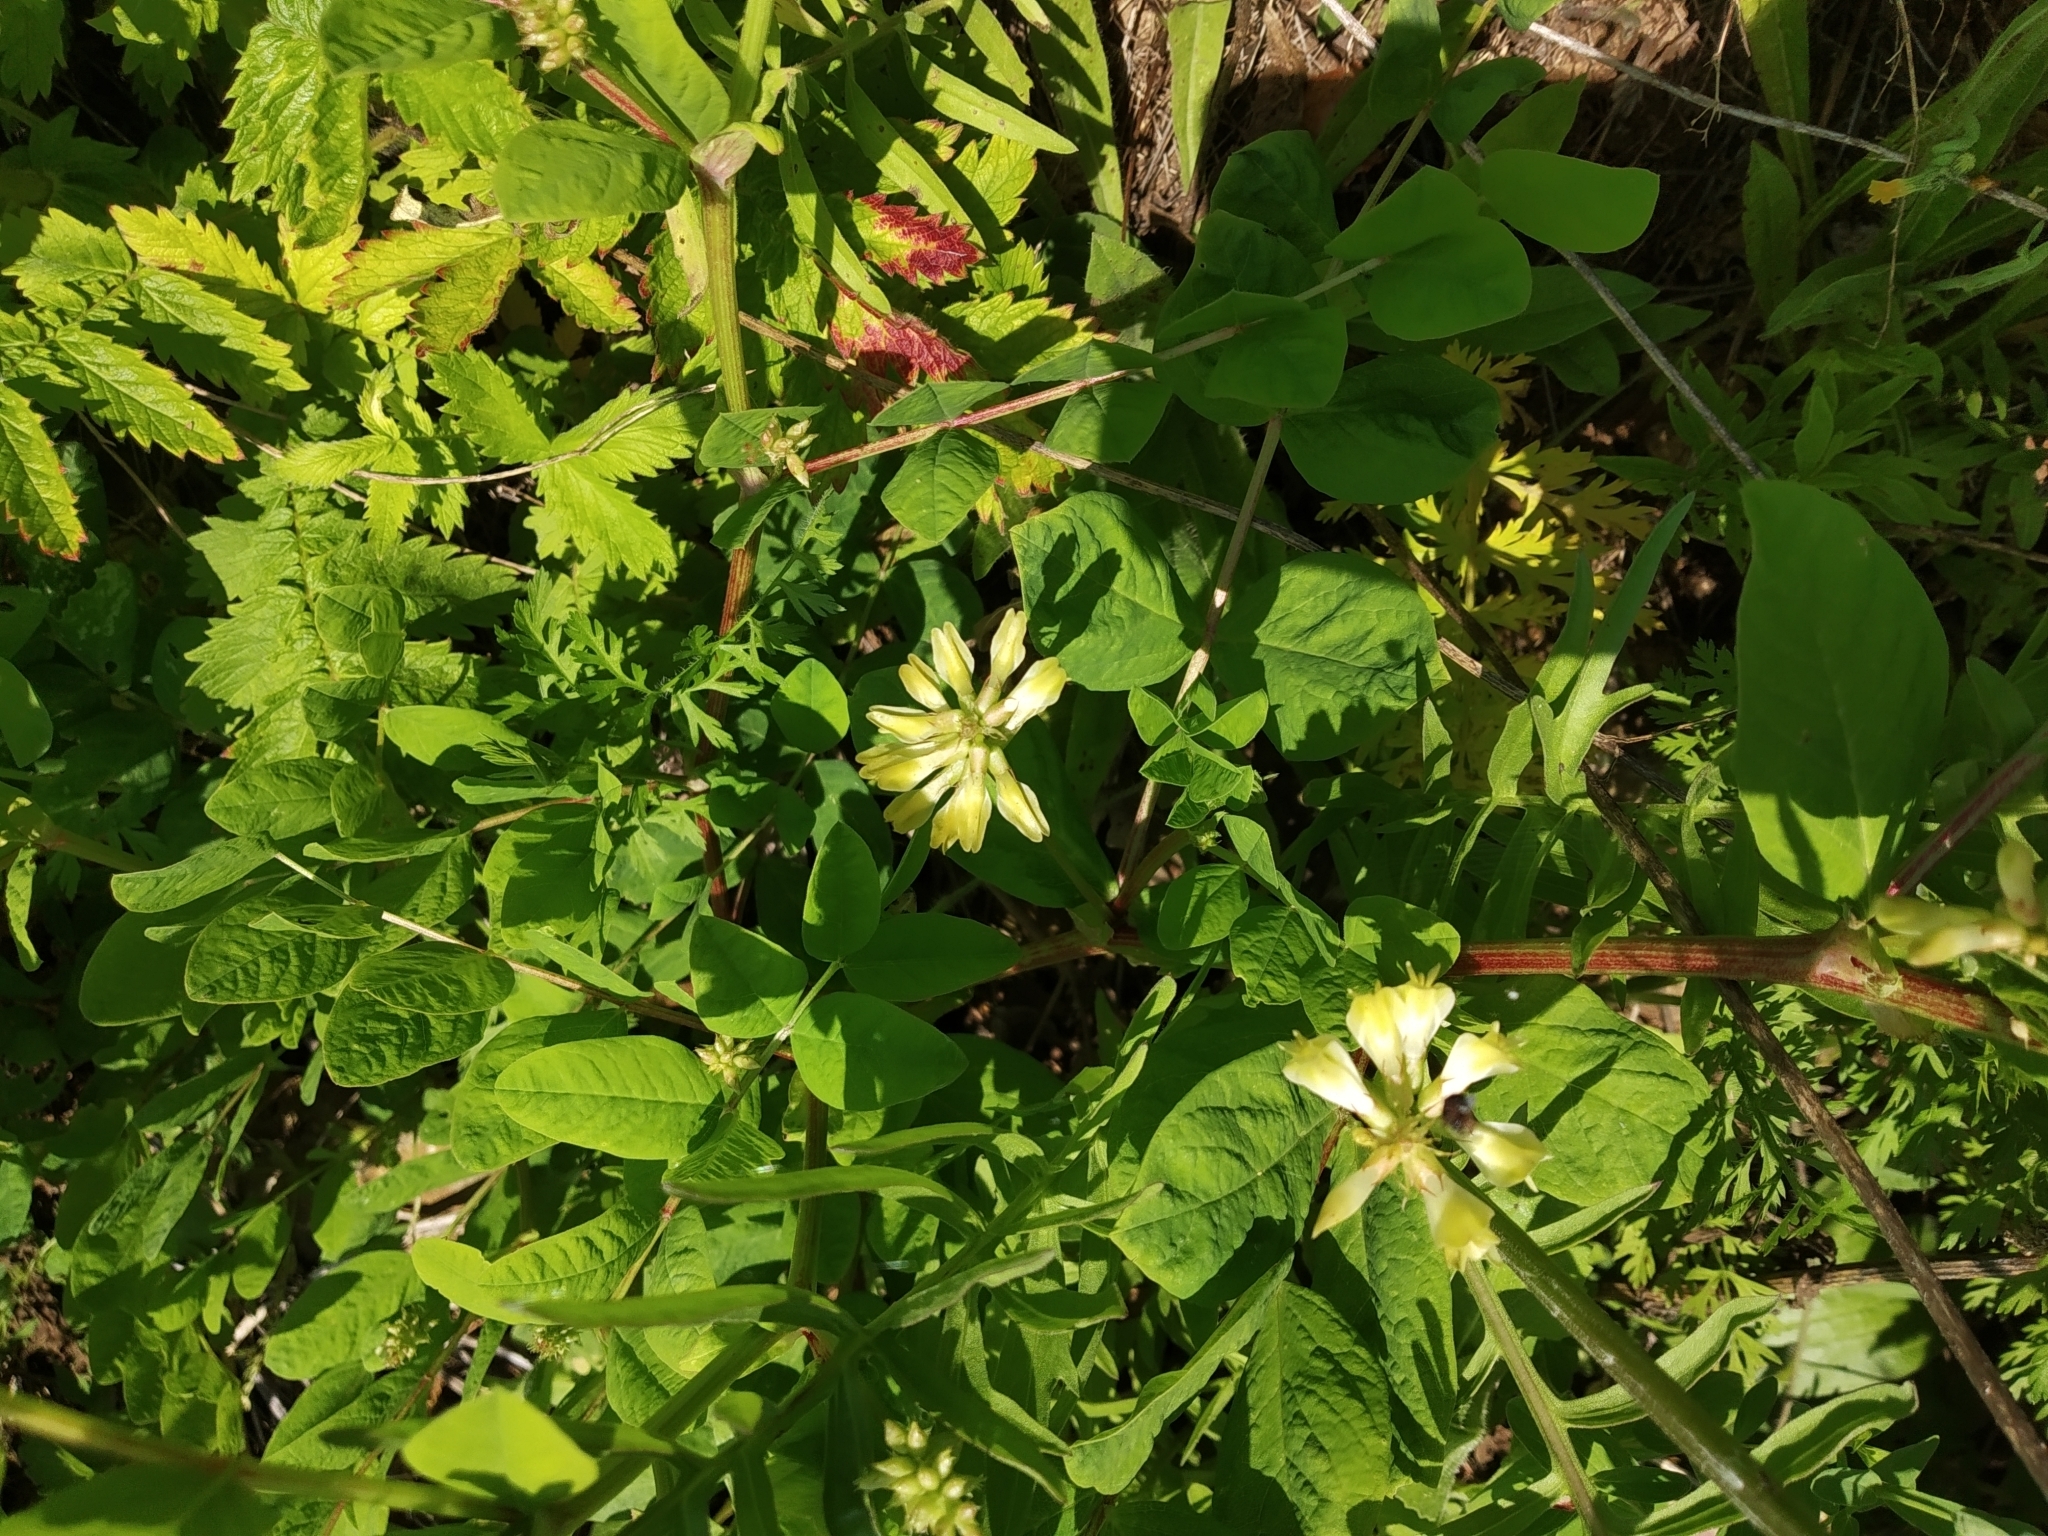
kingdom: Plantae
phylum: Tracheophyta
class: Magnoliopsida
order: Fabales
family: Fabaceae
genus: Astragalus
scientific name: Astragalus glycyphyllos
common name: Wild liquorice
